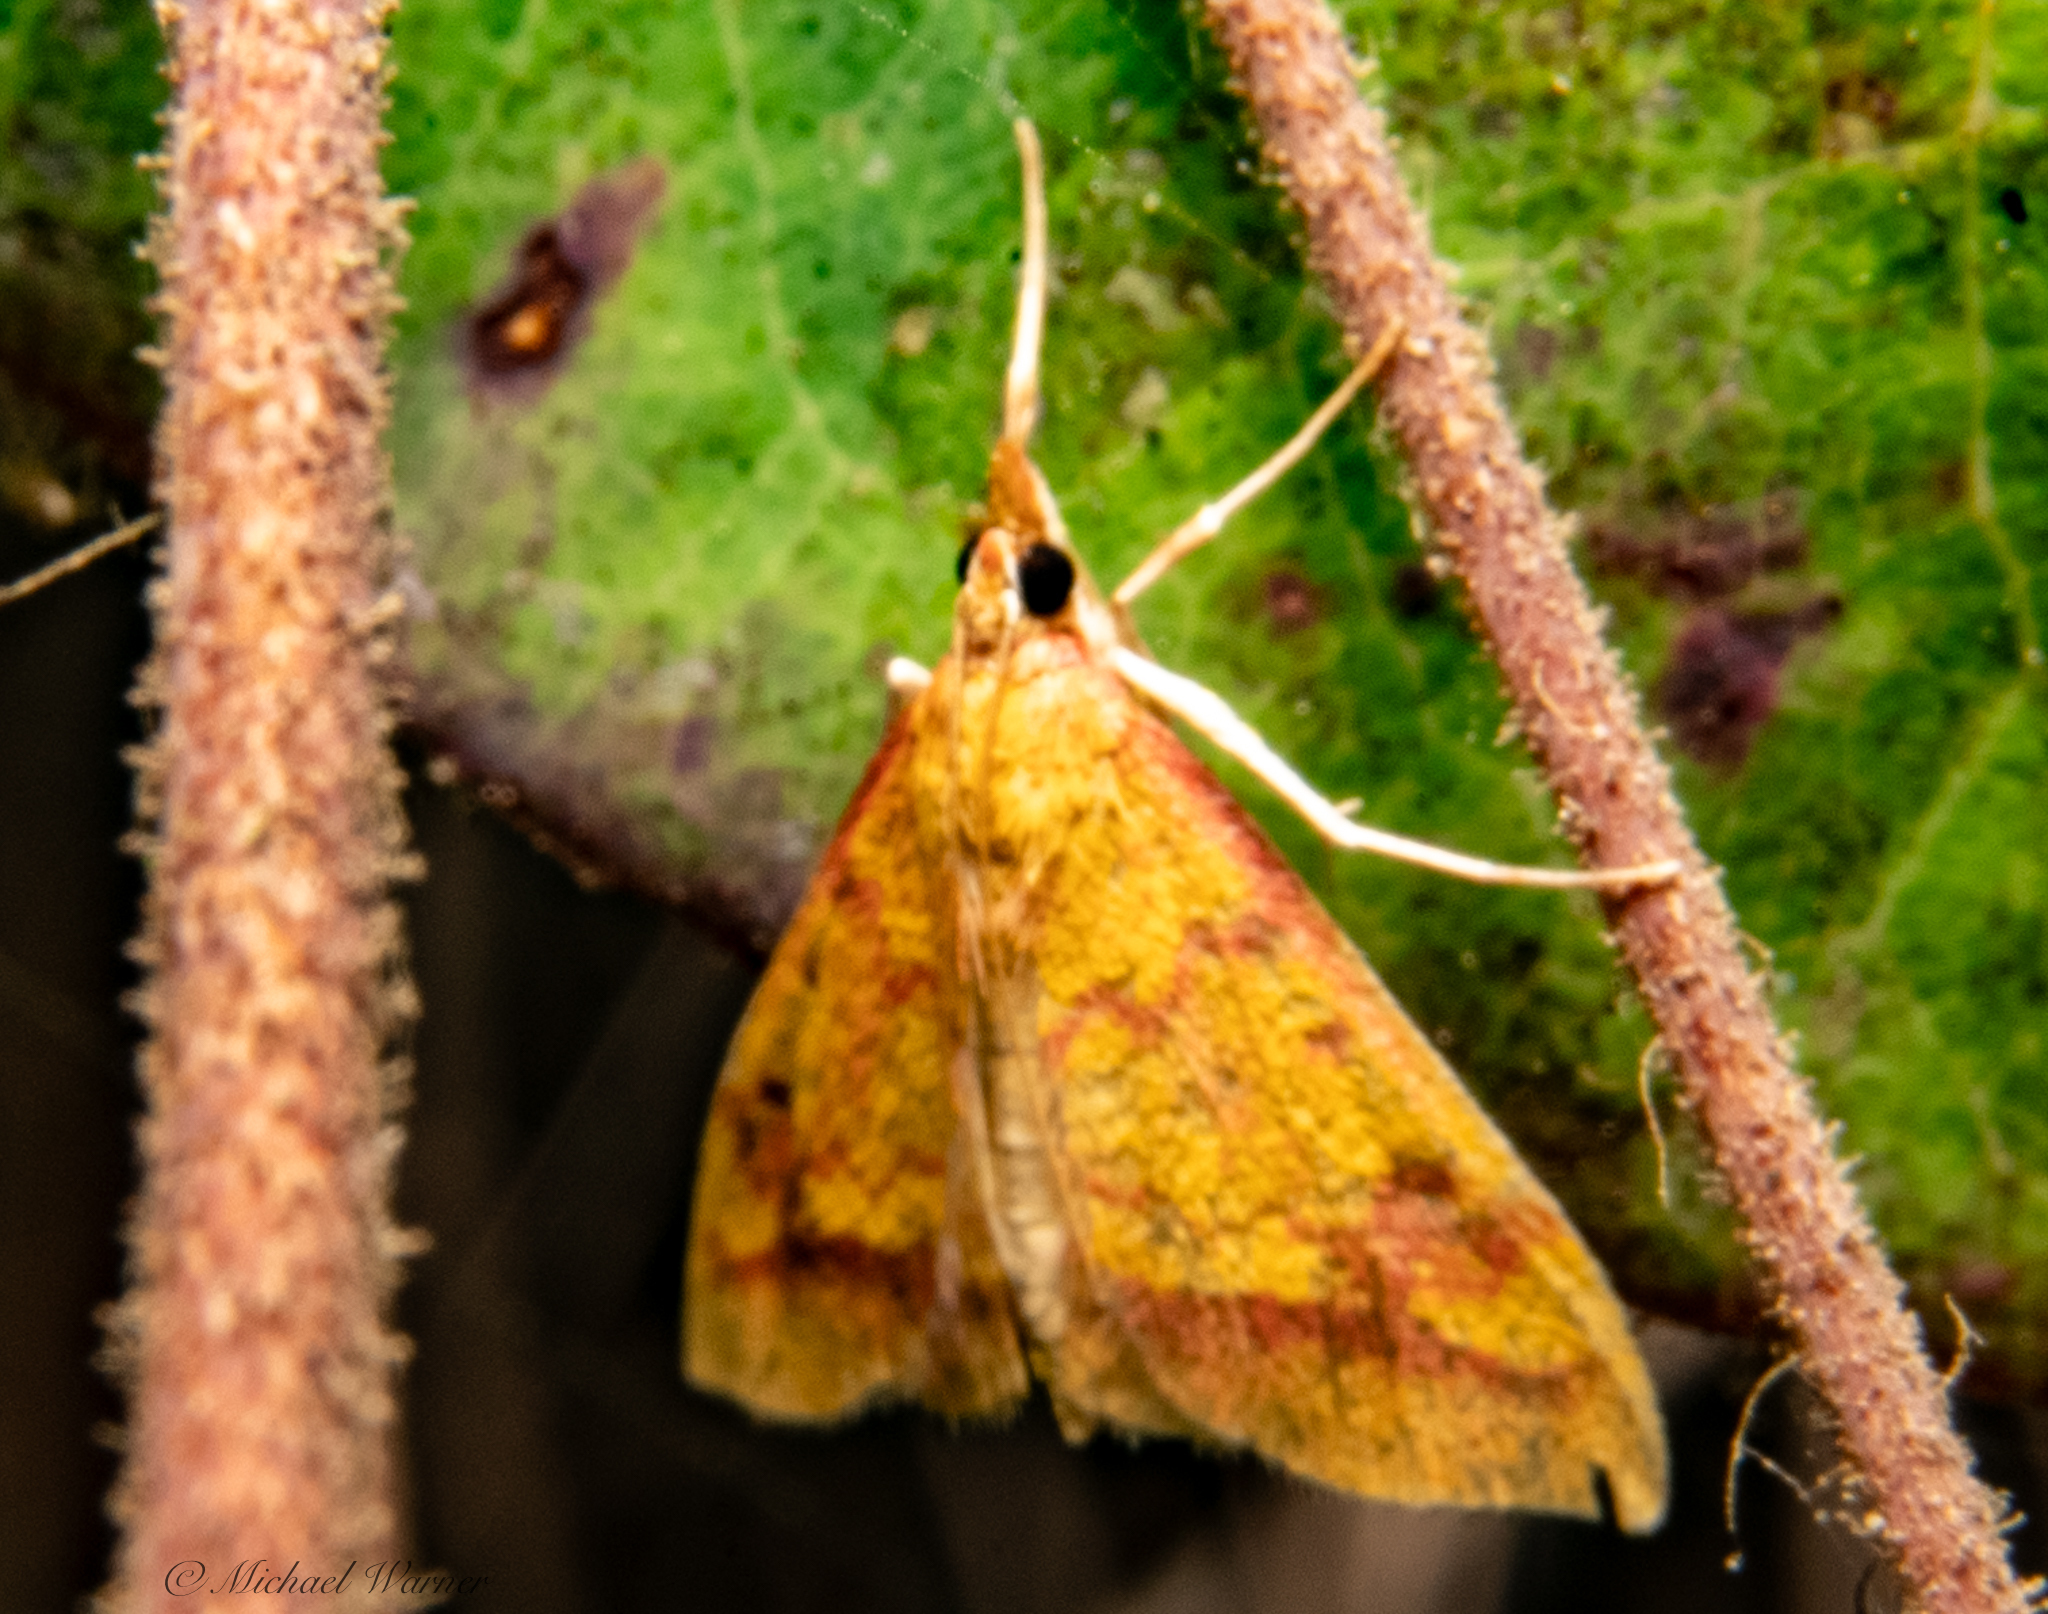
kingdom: Animalia
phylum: Arthropoda
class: Insecta
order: Lepidoptera
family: Crambidae
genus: Pyrausta
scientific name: Pyrausta perrubralis
